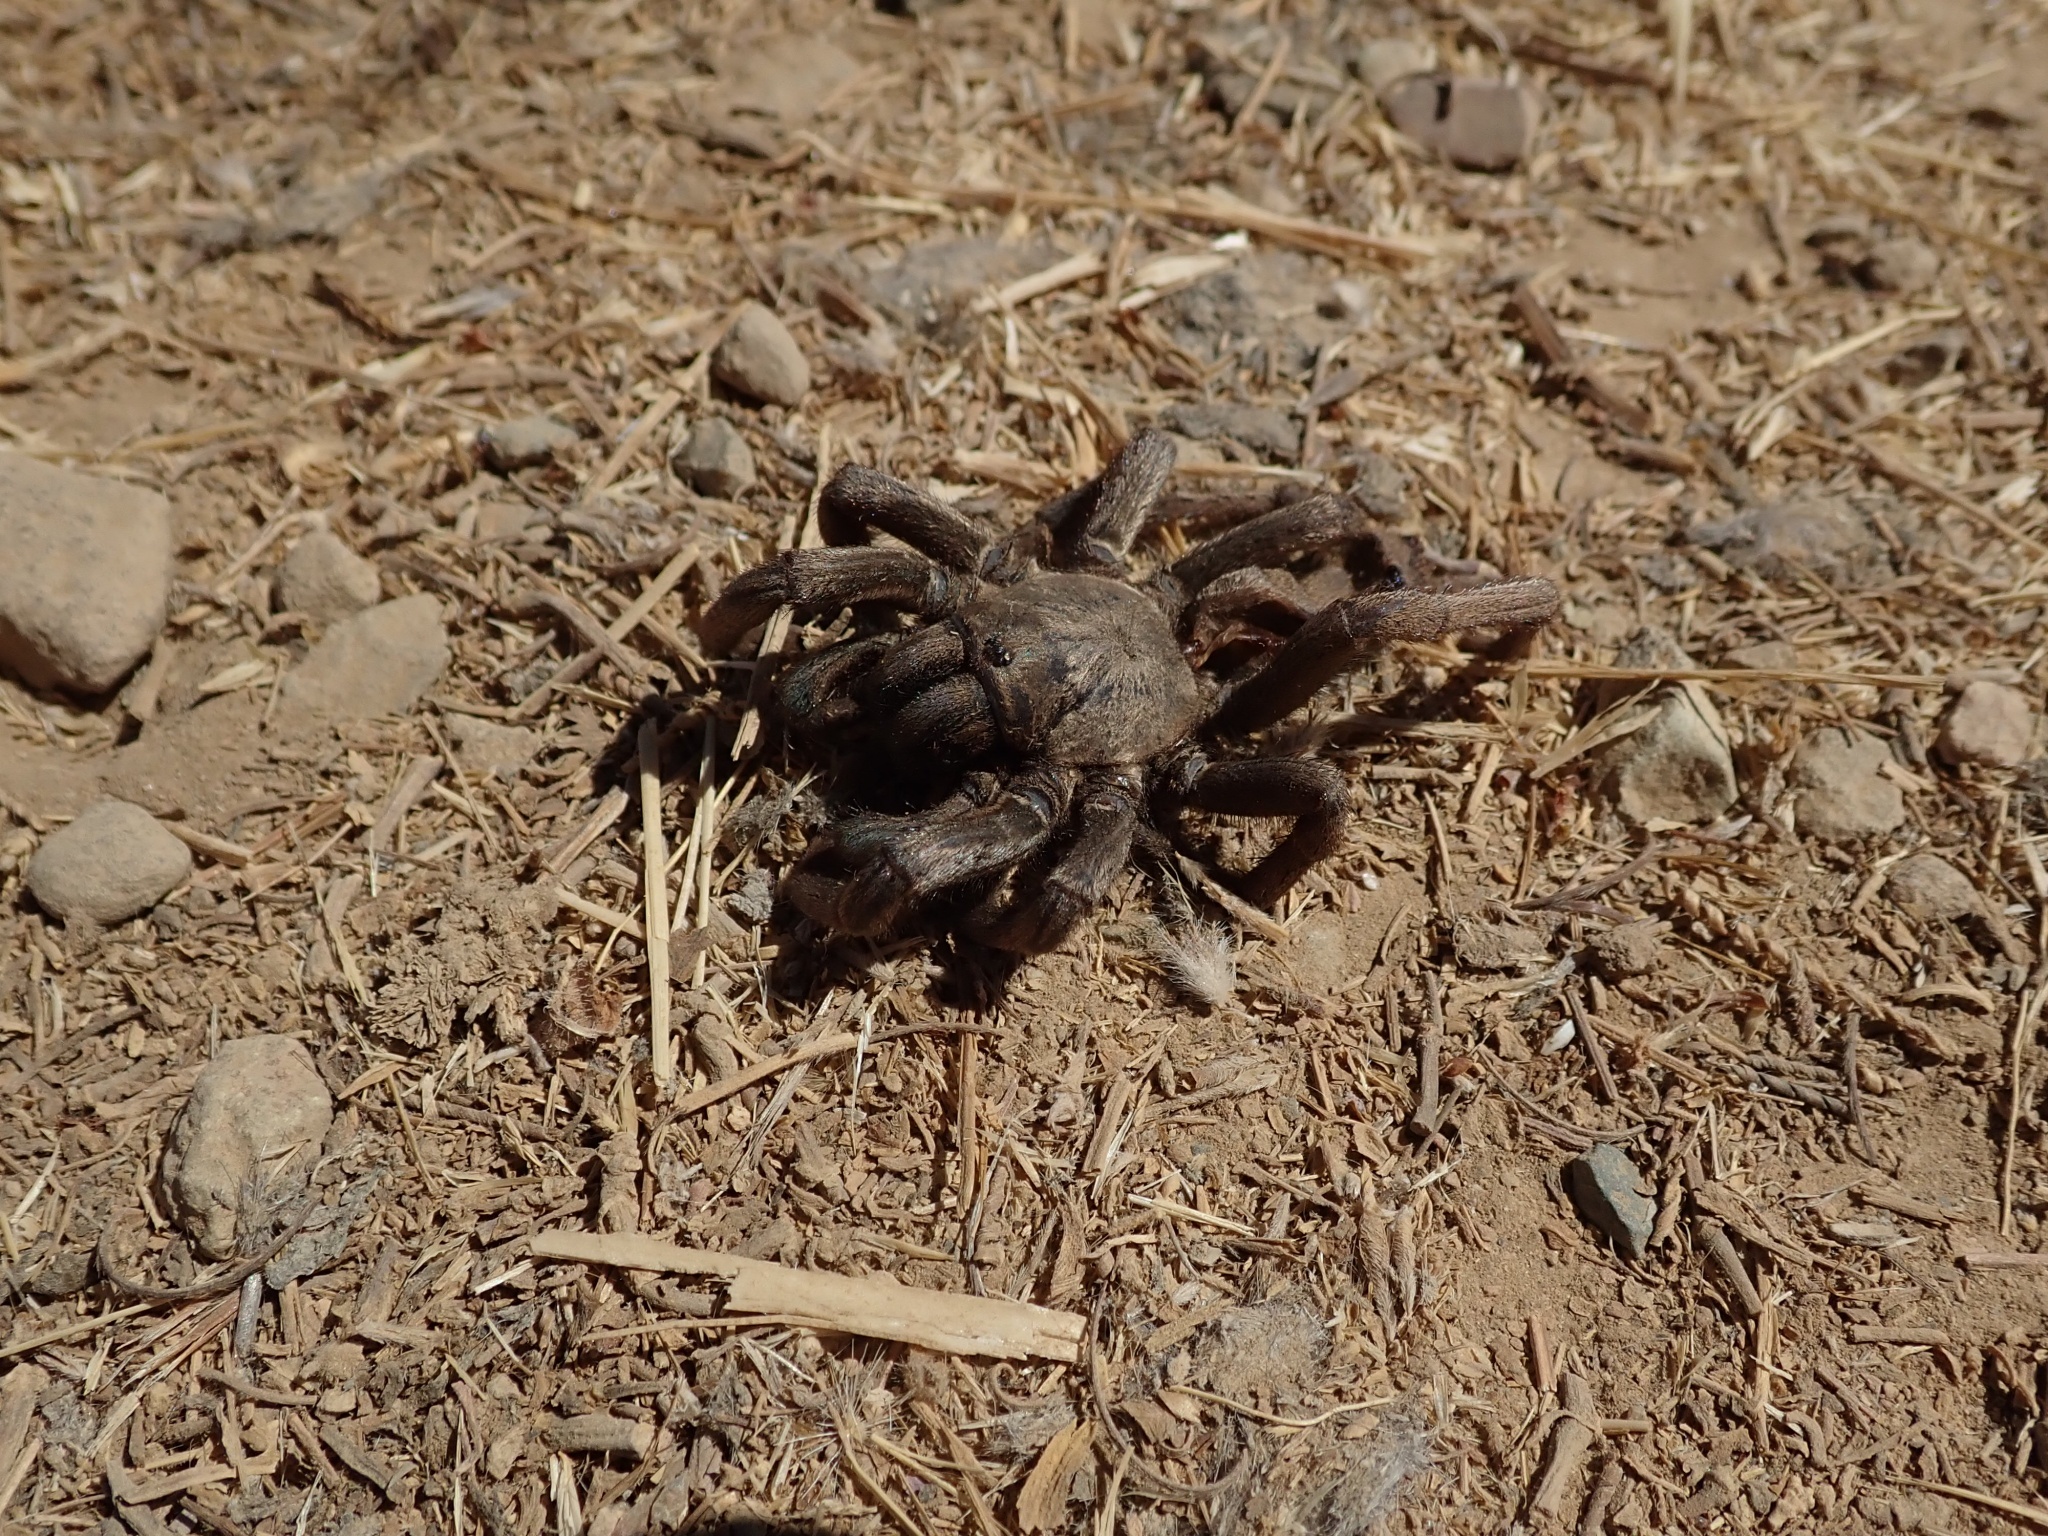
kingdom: Animalia
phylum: Arthropoda
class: Arachnida
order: Araneae
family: Nemesiidae
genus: Calisoga
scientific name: Calisoga longitarsis
